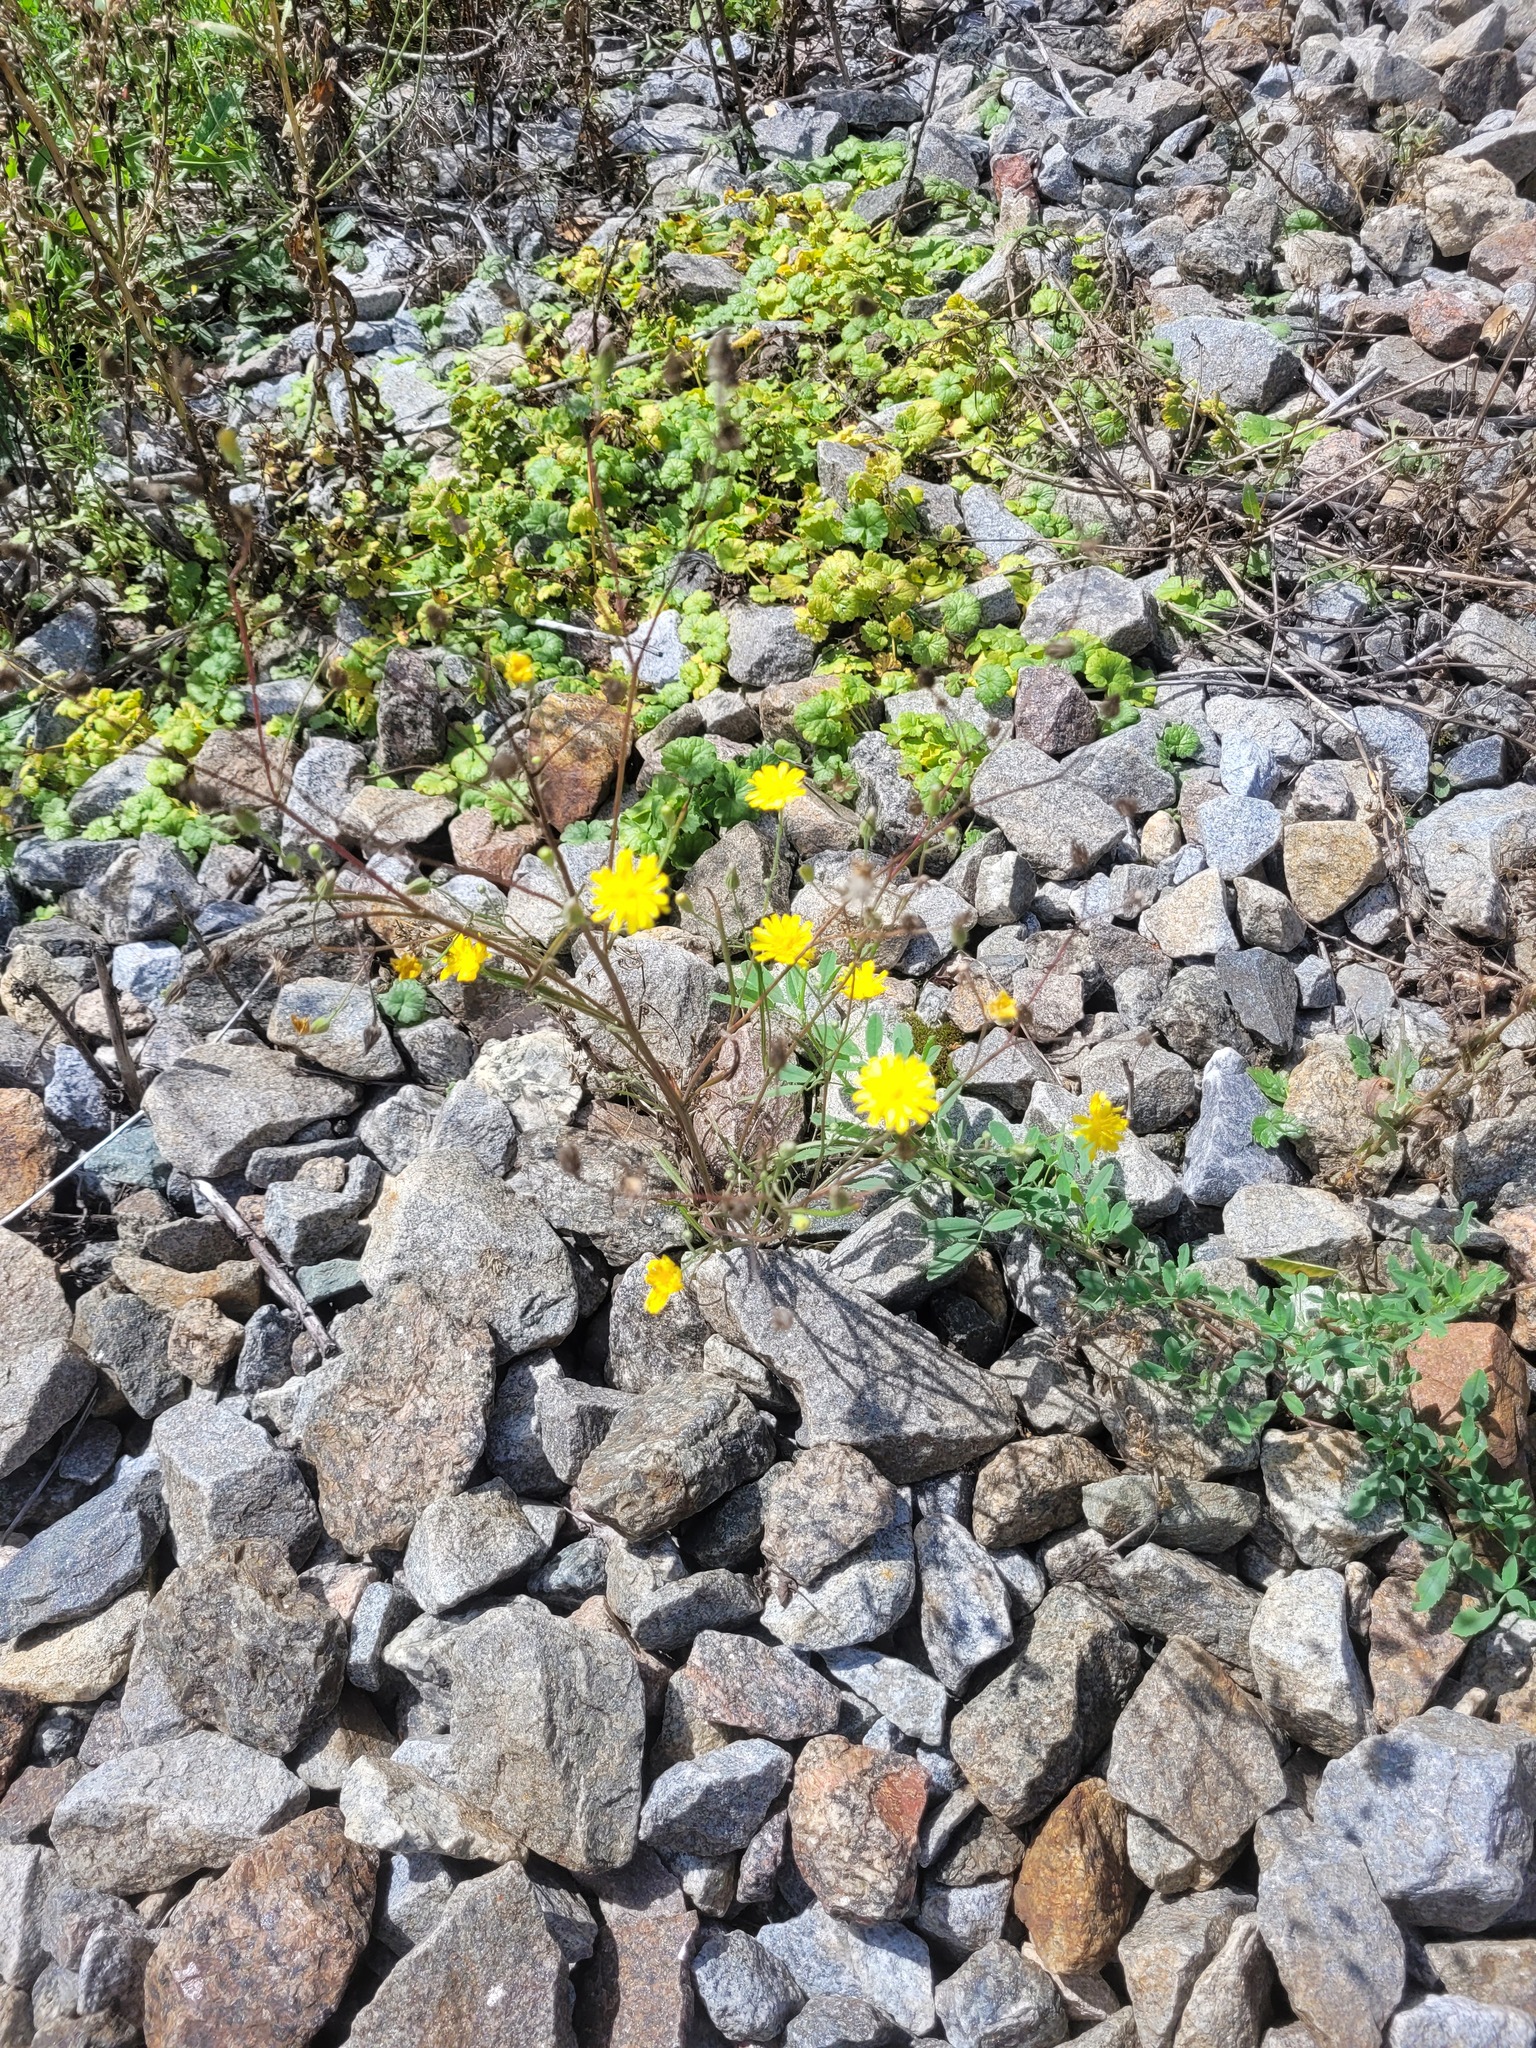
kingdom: Plantae
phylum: Tracheophyta
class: Magnoliopsida
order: Asterales
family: Asteraceae
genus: Crepis
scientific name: Crepis tectorum
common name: Narrow-leaved hawk's-beard
